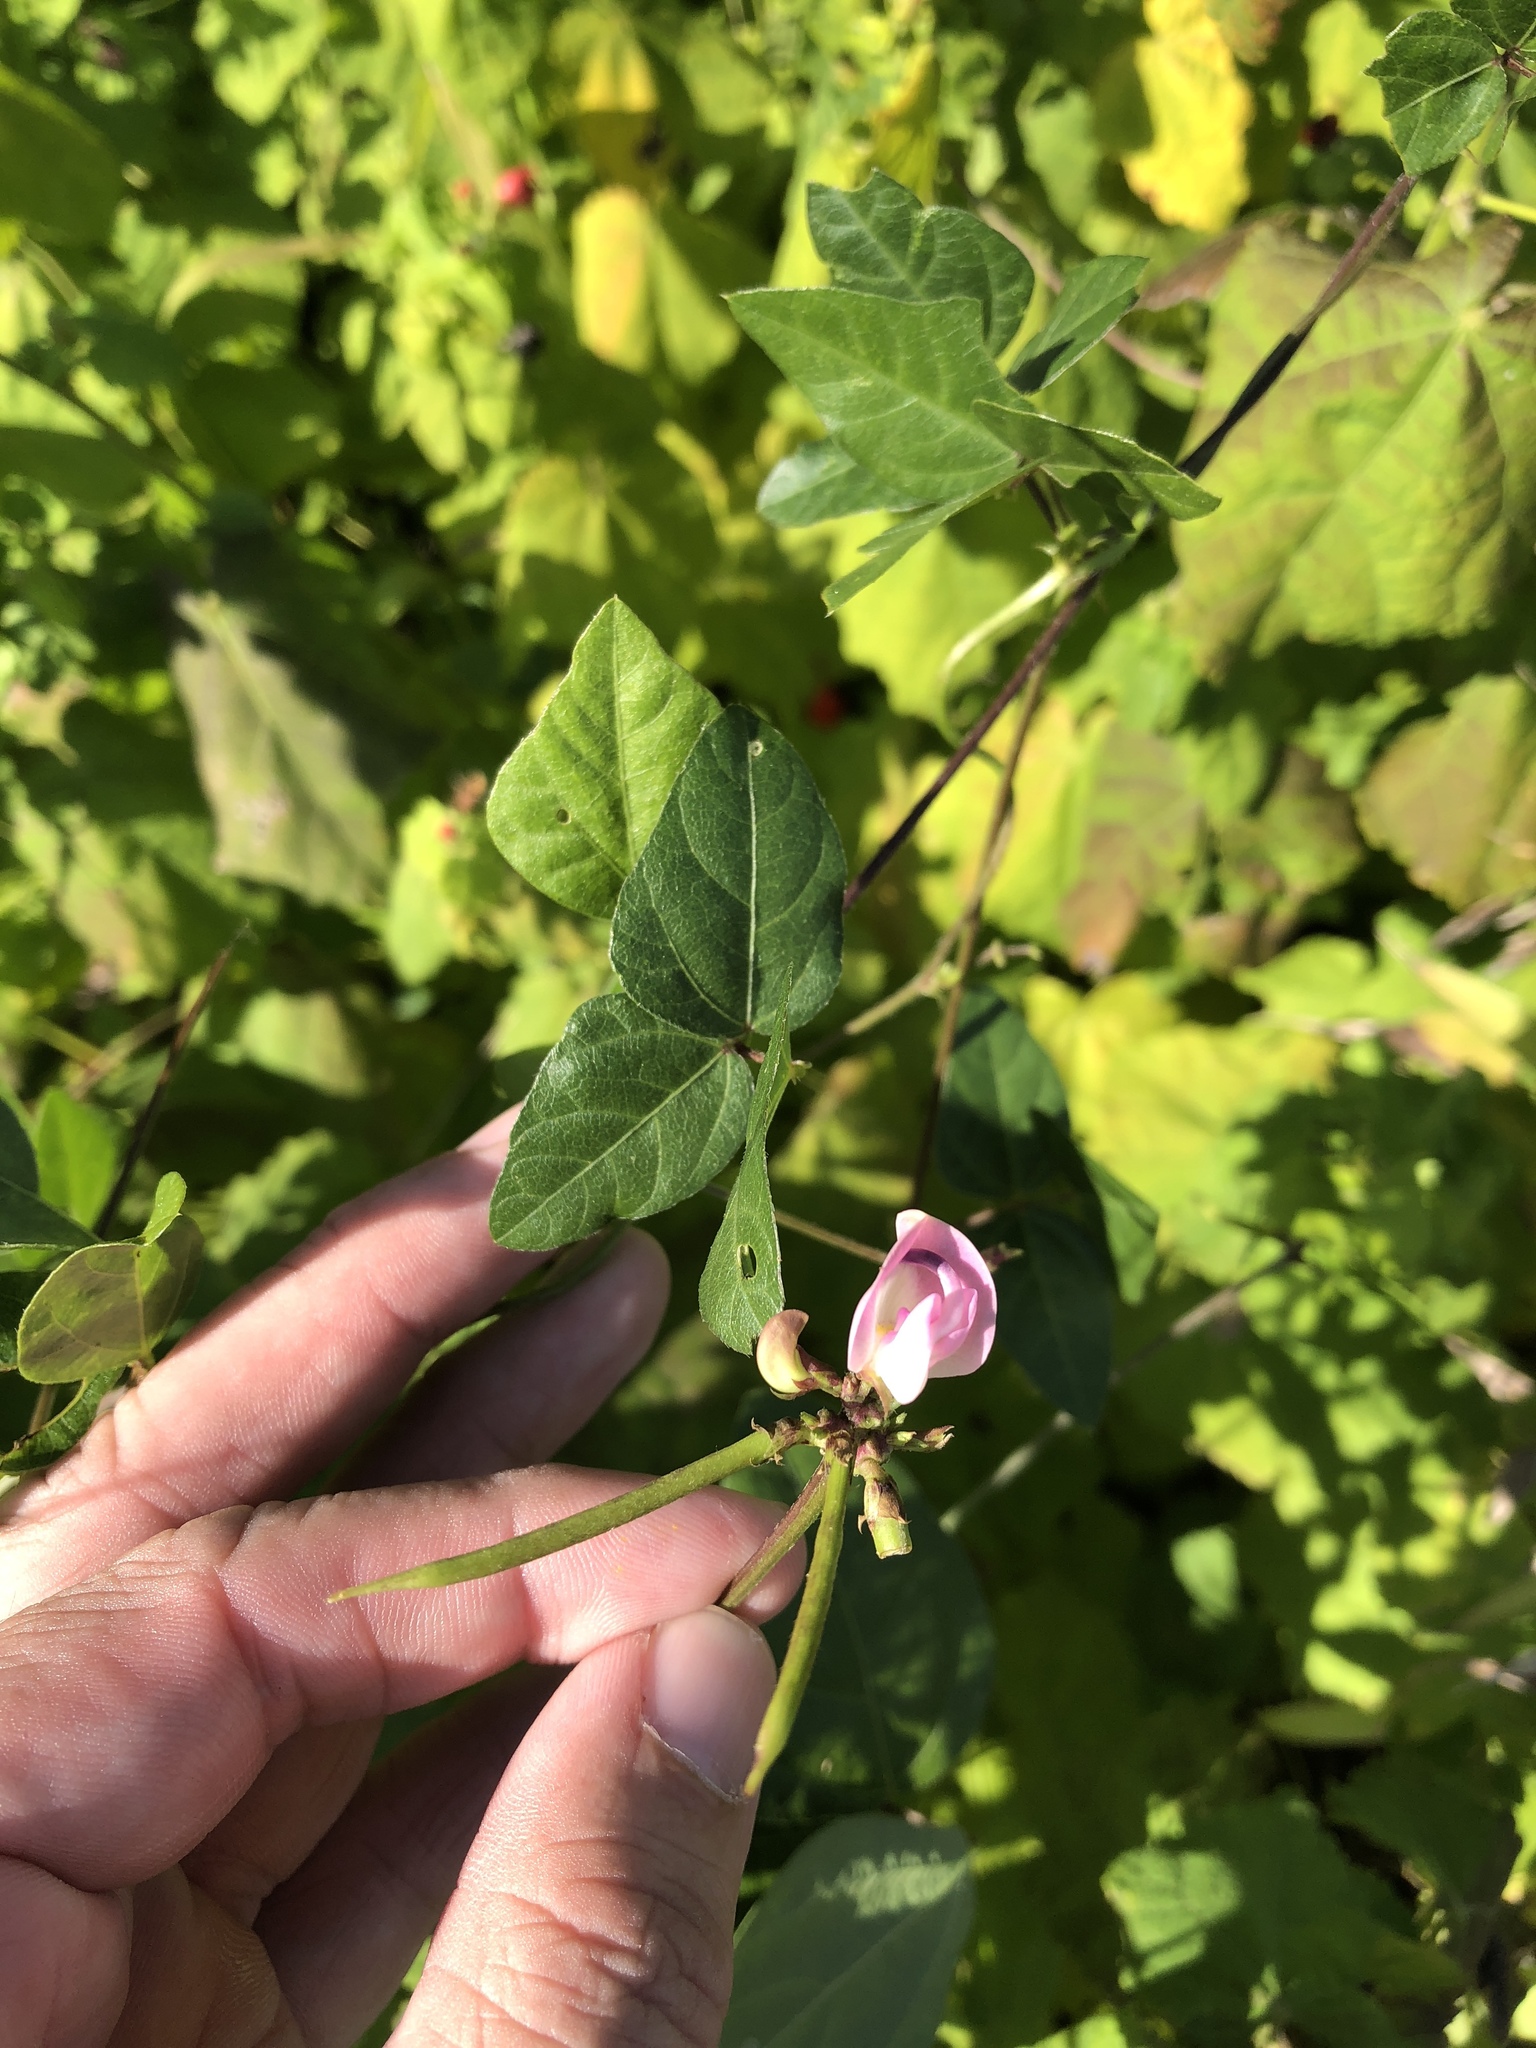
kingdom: Plantae
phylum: Tracheophyta
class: Magnoliopsida
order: Fabales
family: Fabaceae
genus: Strophostyles
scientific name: Strophostyles helvola
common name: Trailing wild bean
